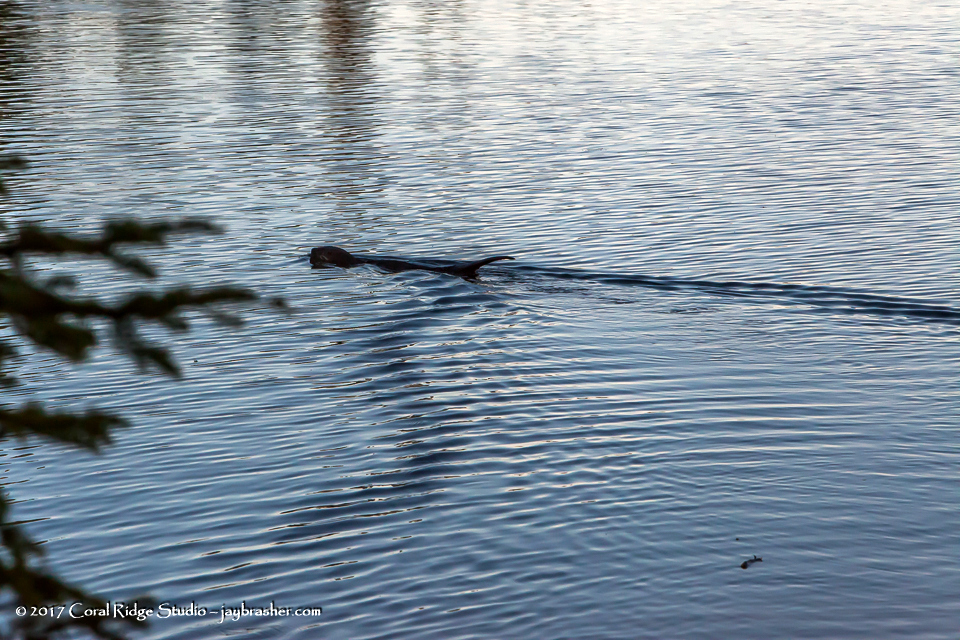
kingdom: Animalia
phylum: Chordata
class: Mammalia
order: Carnivora
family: Mustelidae
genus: Lontra
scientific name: Lontra canadensis
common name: North american river otter
